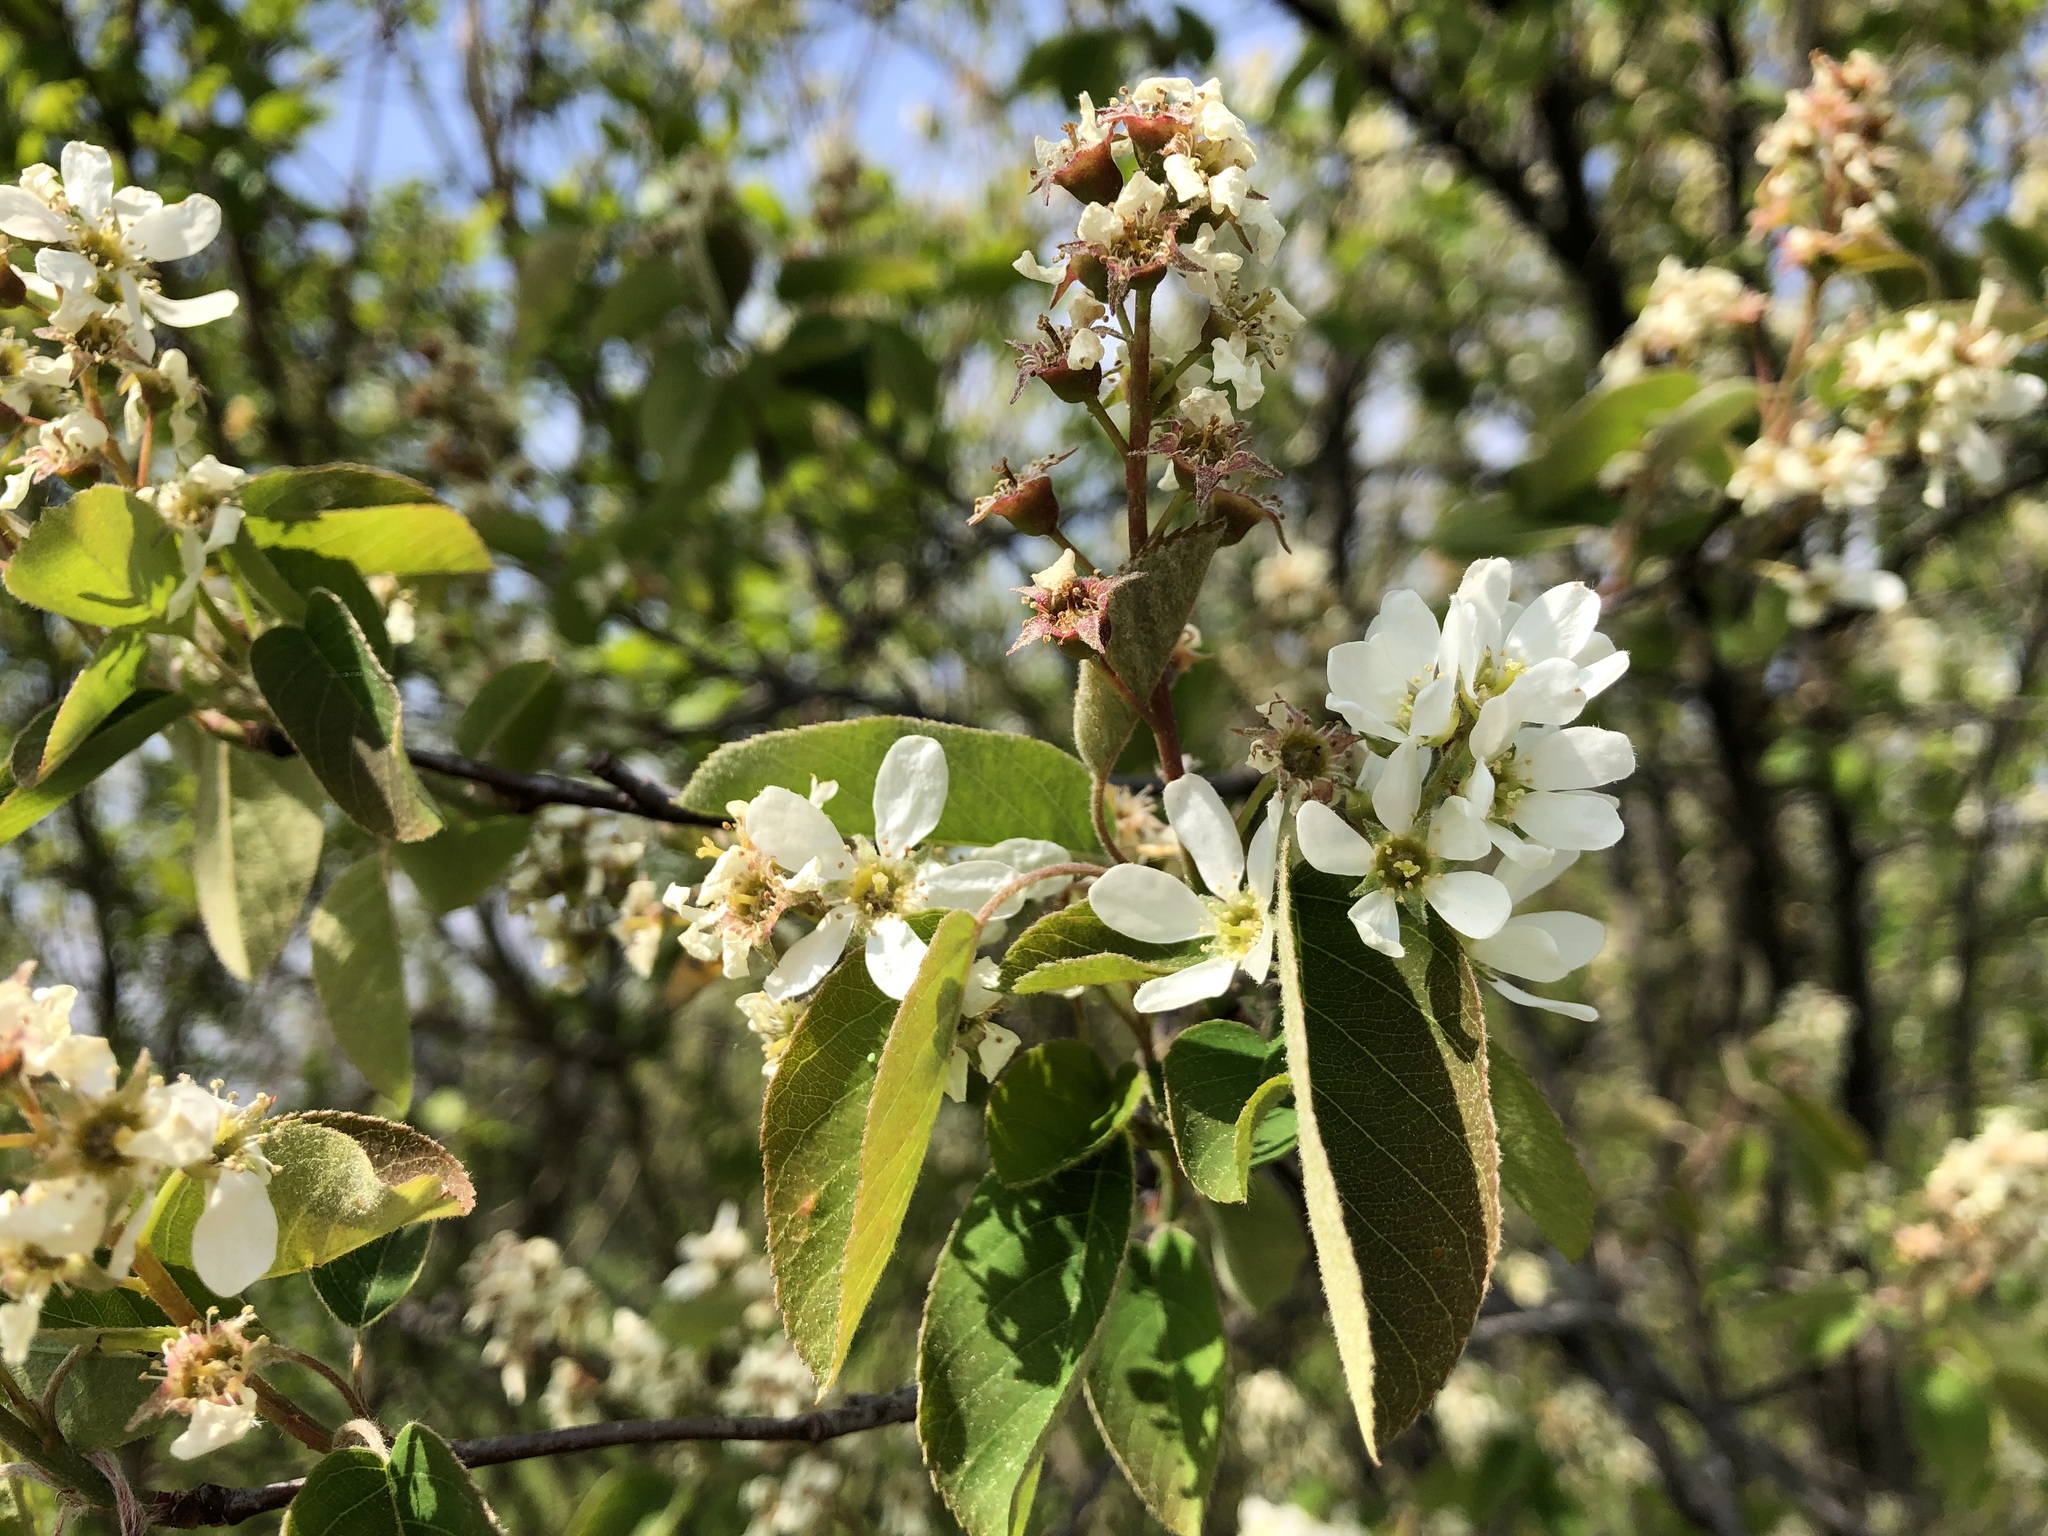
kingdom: Plantae
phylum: Tracheophyta
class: Magnoliopsida
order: Rosales
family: Rosaceae
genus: Amelanchier
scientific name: Amelanchier ovalis
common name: Serviceberry
